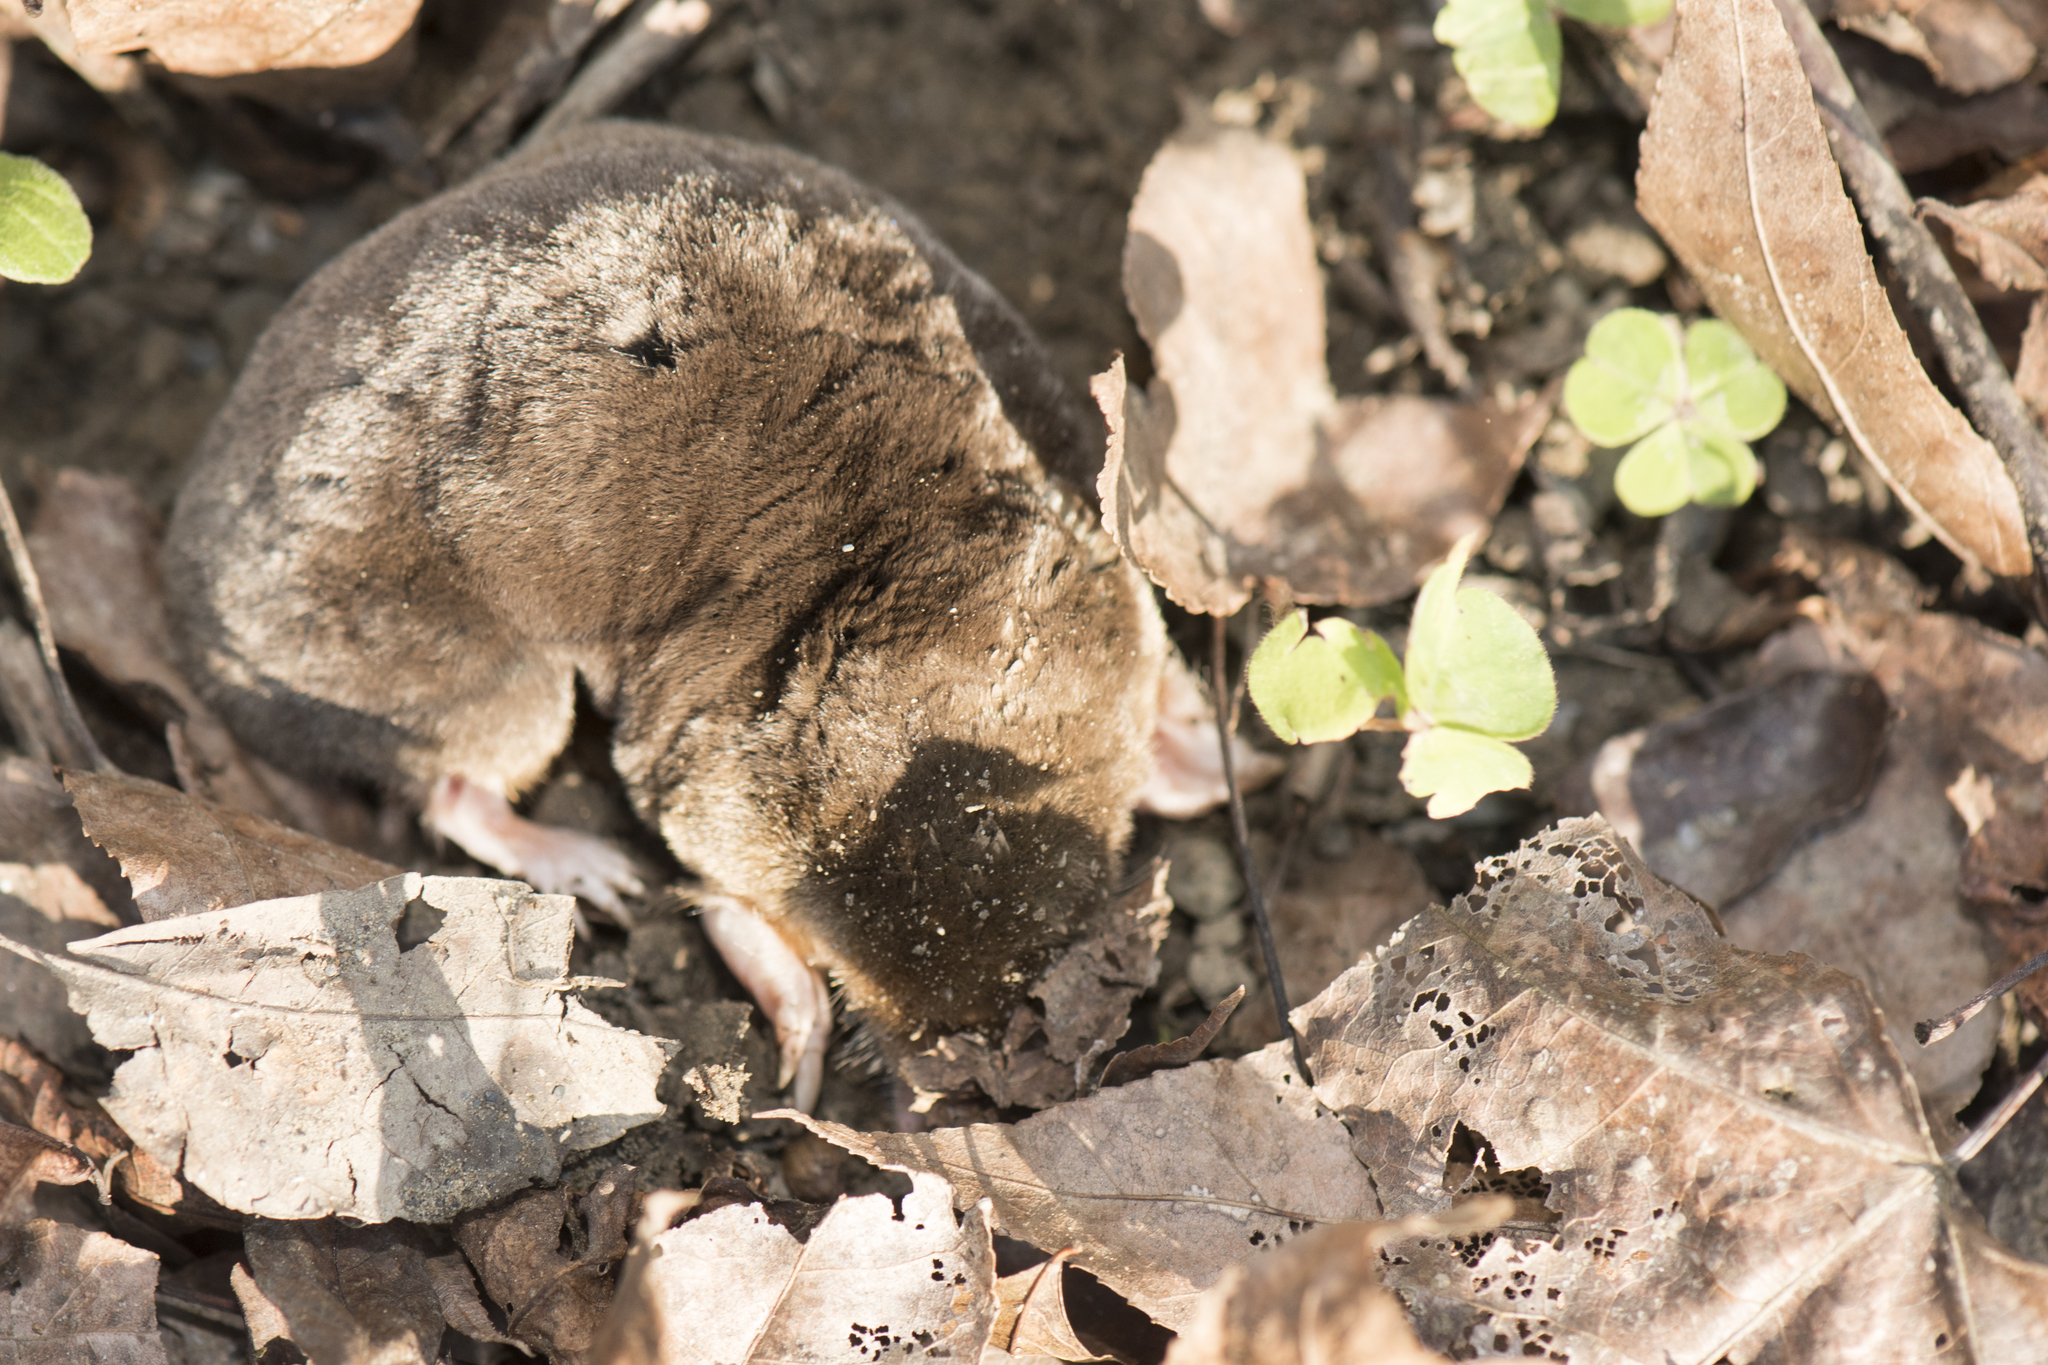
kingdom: Animalia
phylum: Chordata
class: Mammalia
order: Soricomorpha
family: Talpidae
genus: Mogera
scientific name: Mogera insularis
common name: Insular mole
